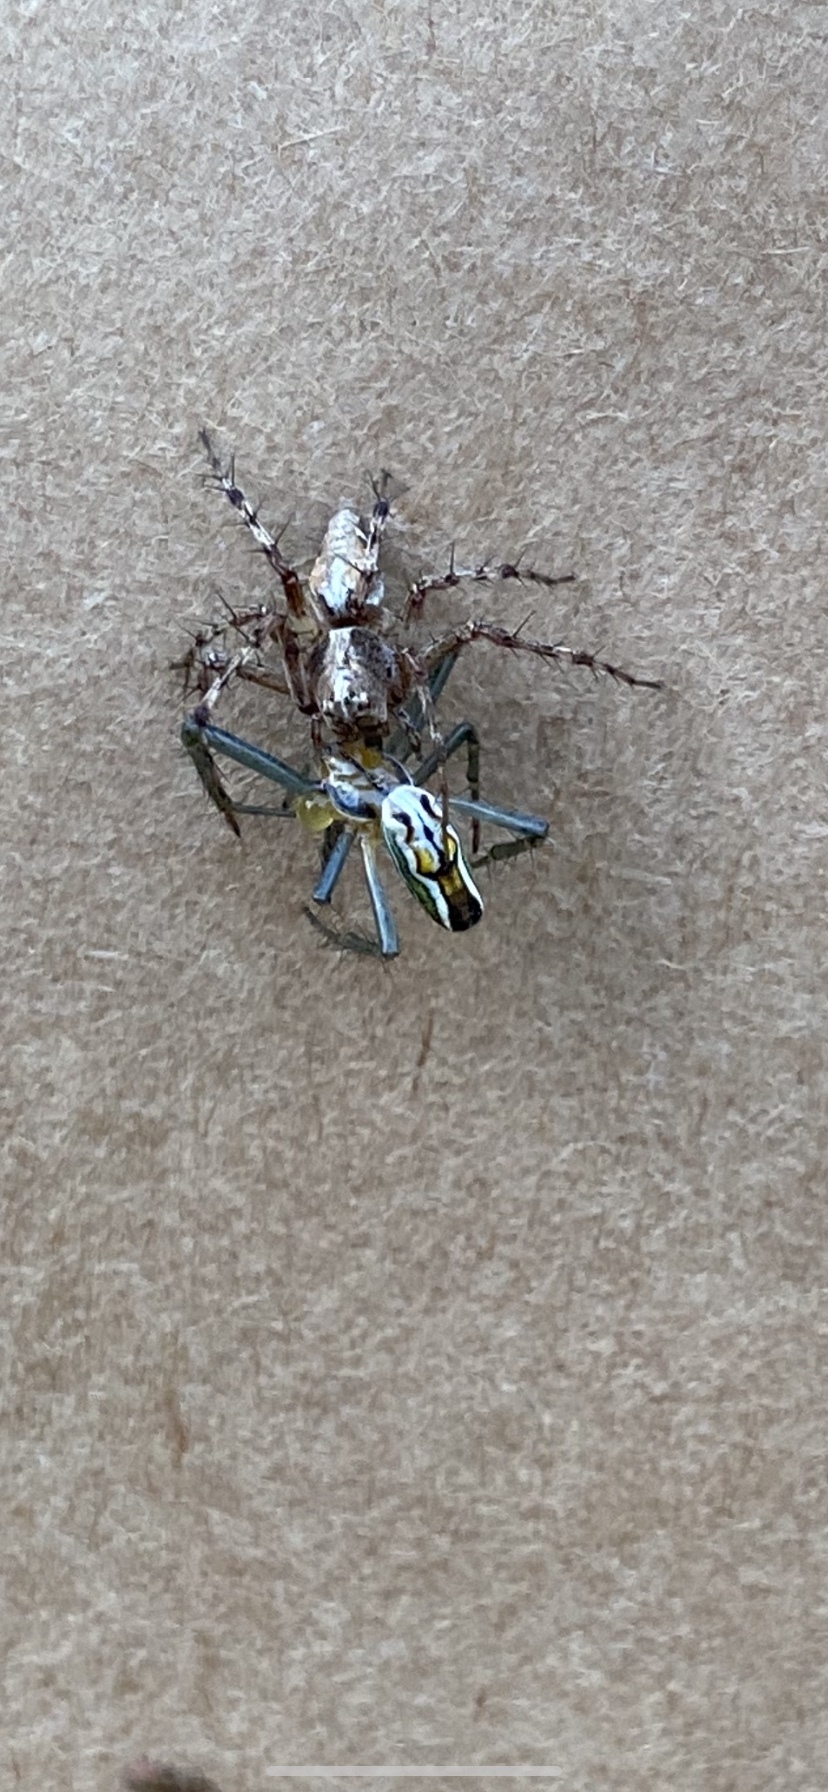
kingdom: Animalia
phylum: Arthropoda
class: Arachnida
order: Araneae
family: Araneidae
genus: Mecynogea
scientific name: Mecynogea lemniscata
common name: Orb weavers
